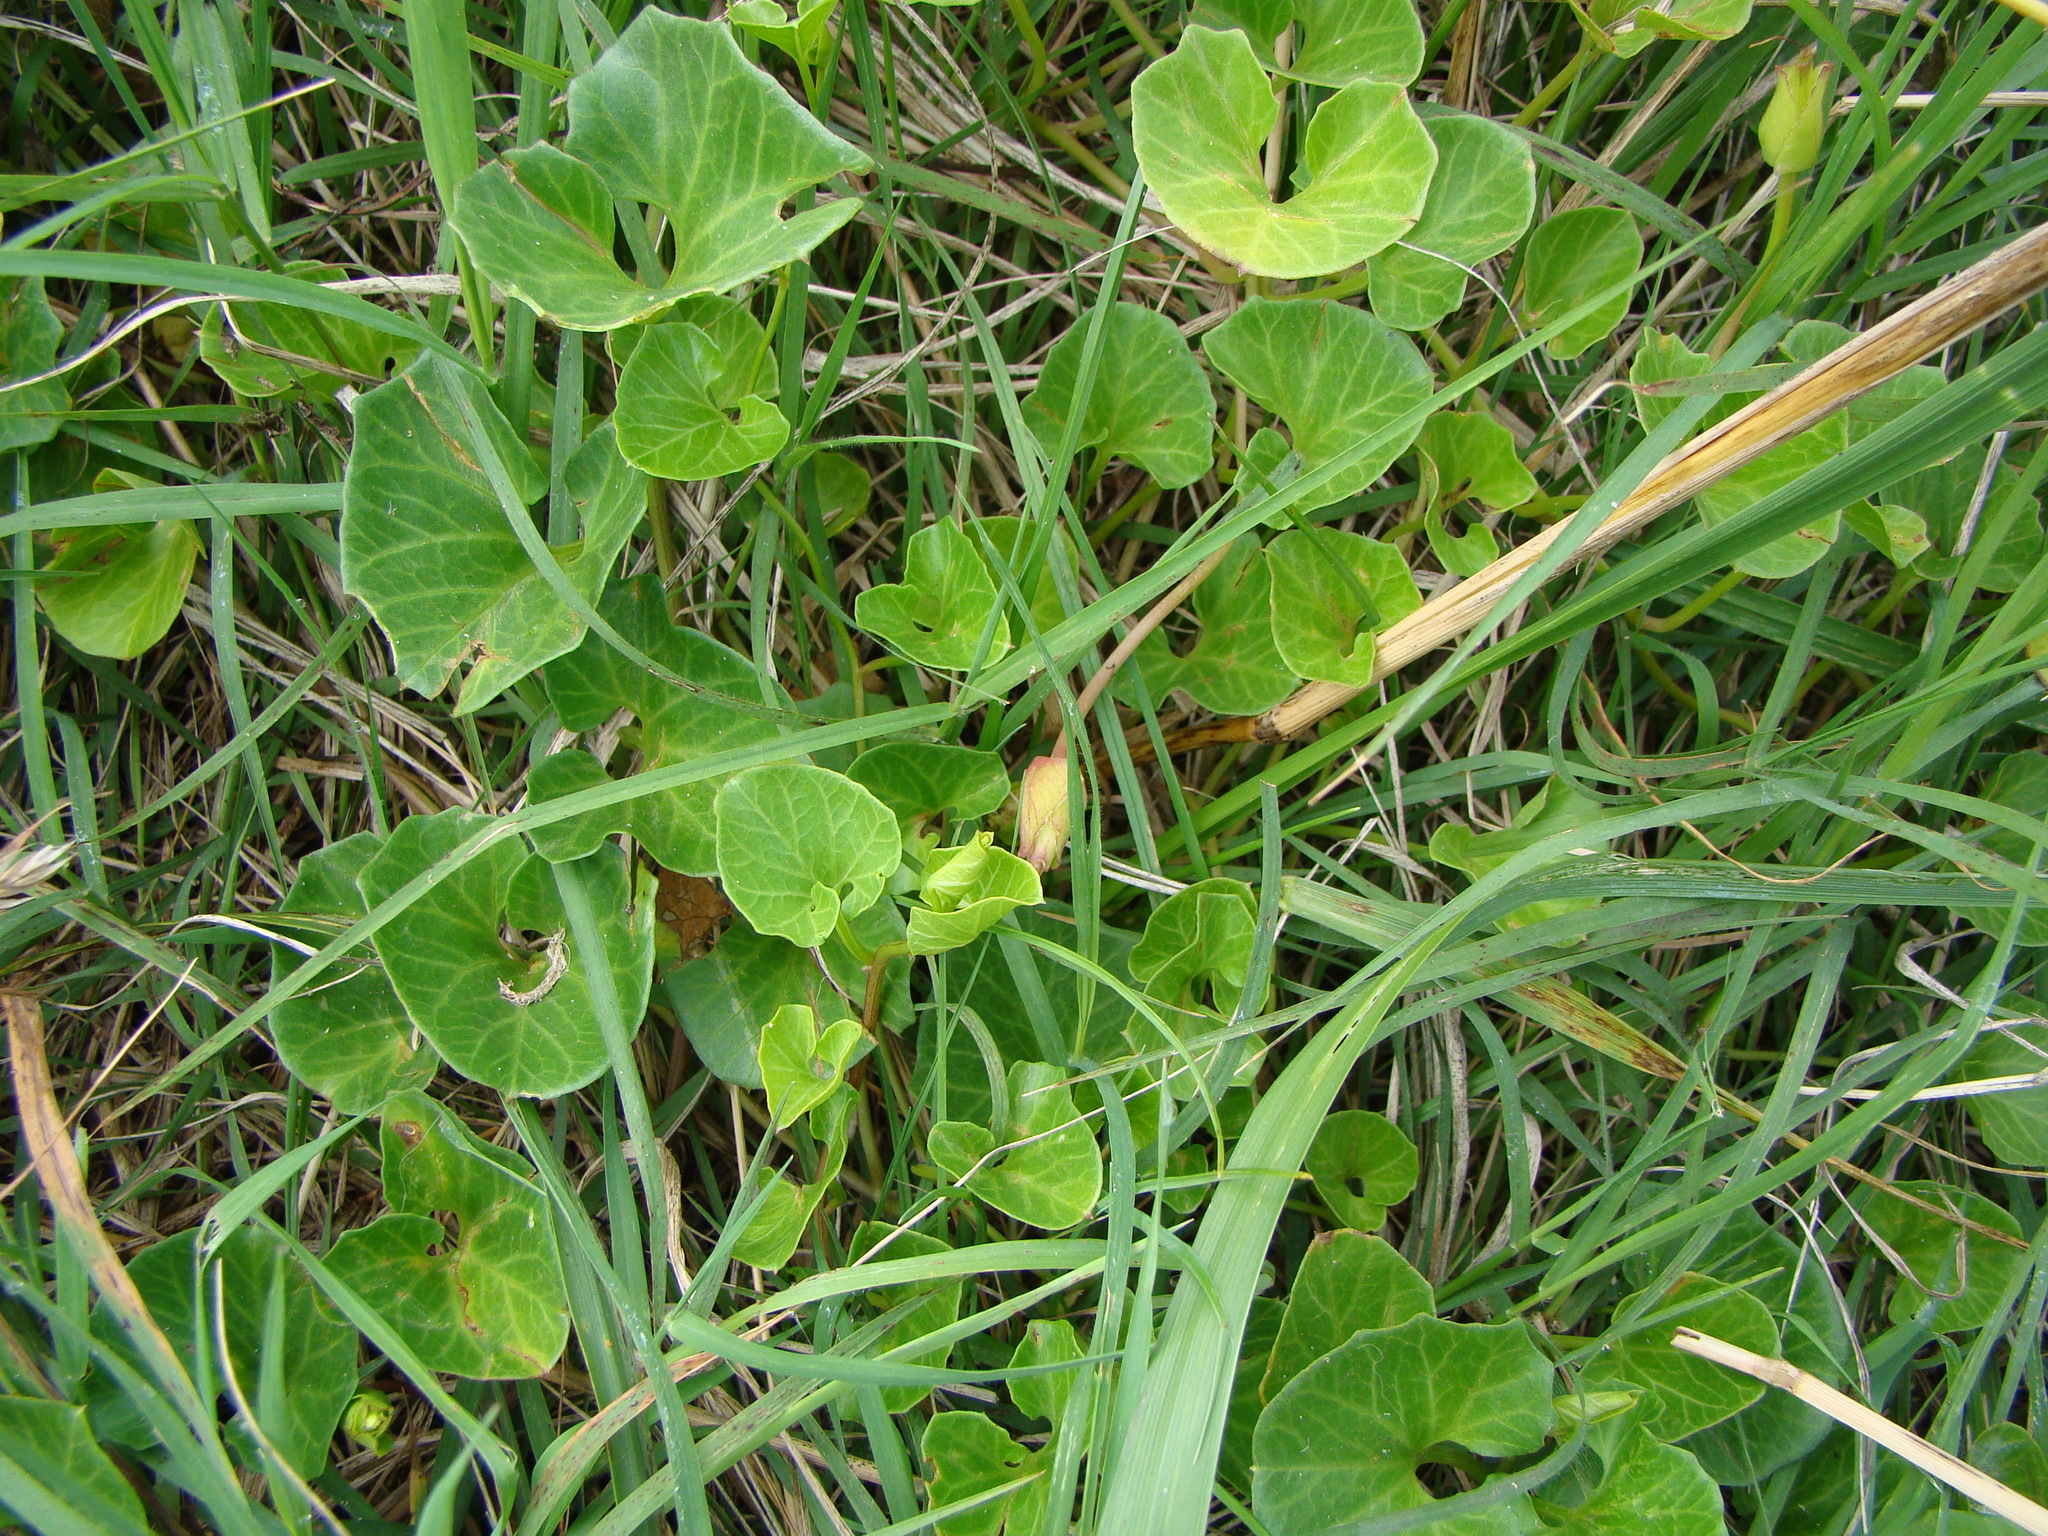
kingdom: Plantae
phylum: Tracheophyta
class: Magnoliopsida
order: Solanales
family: Convolvulaceae
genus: Calystegia
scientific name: Calystegia soldanella
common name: Sea bindweed
